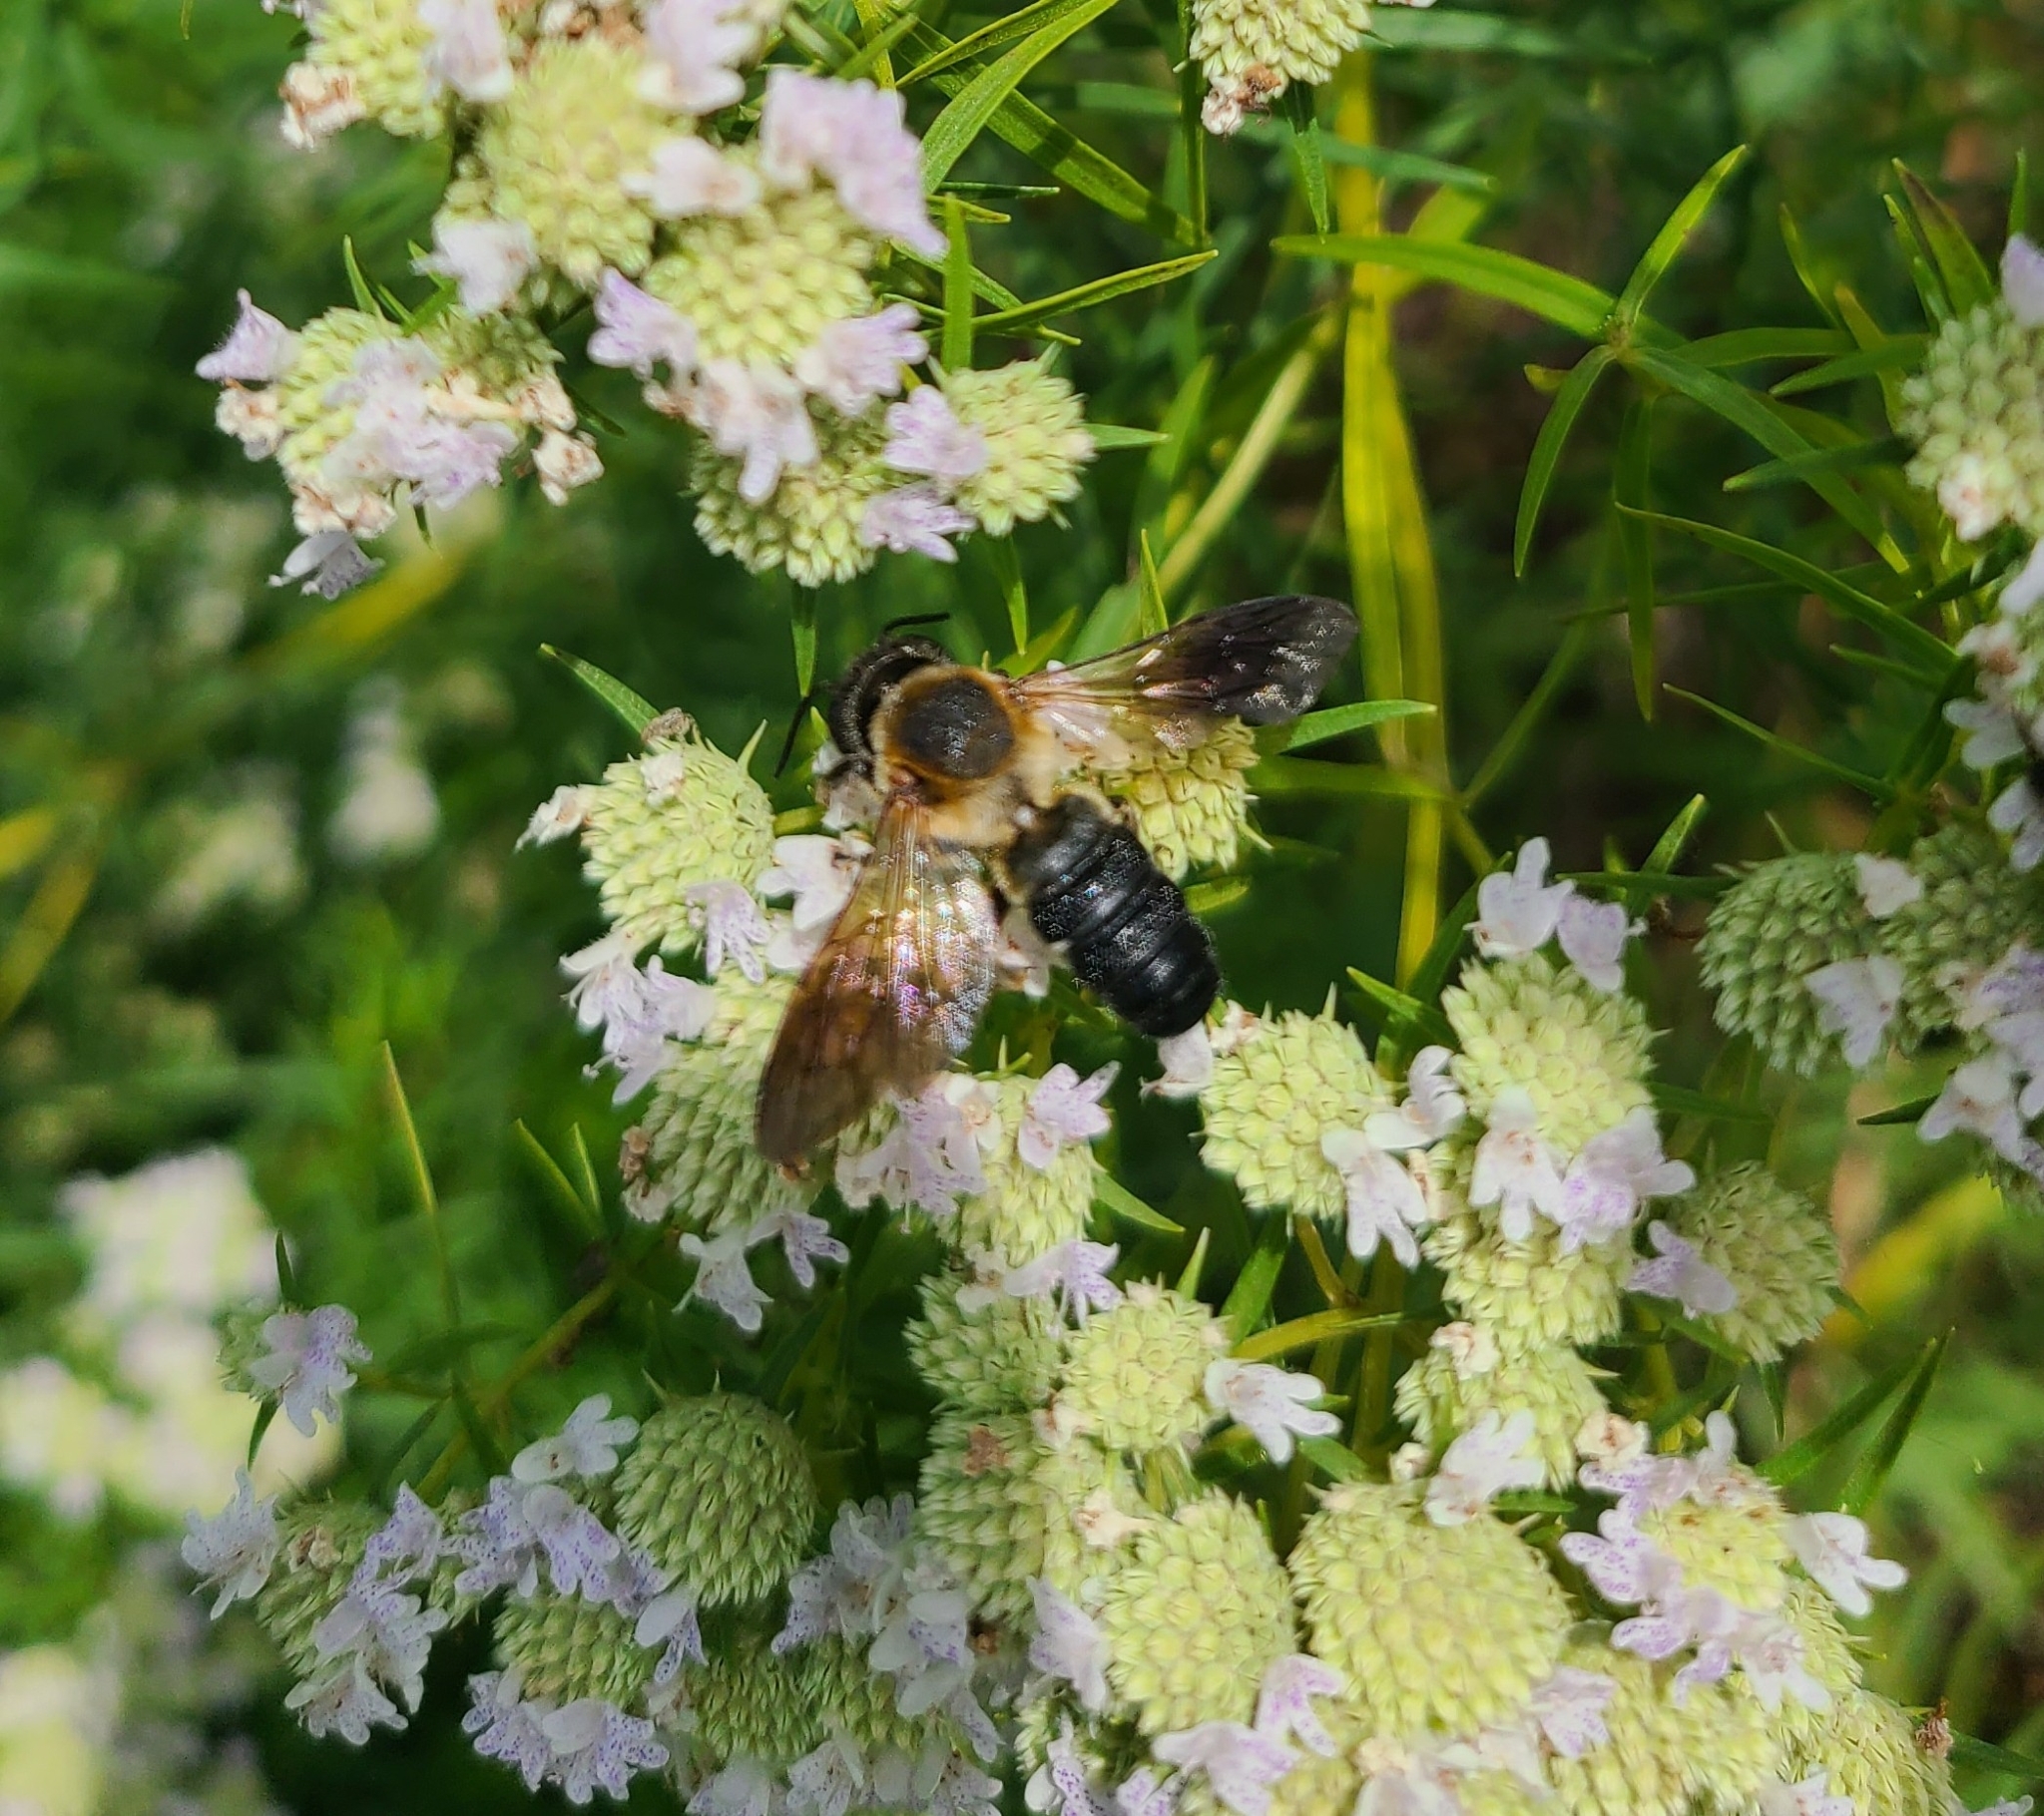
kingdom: Animalia
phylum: Arthropoda
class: Insecta
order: Hymenoptera
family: Megachilidae
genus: Megachile
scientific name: Megachile sculpturalis
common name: Sculptured resin bee
